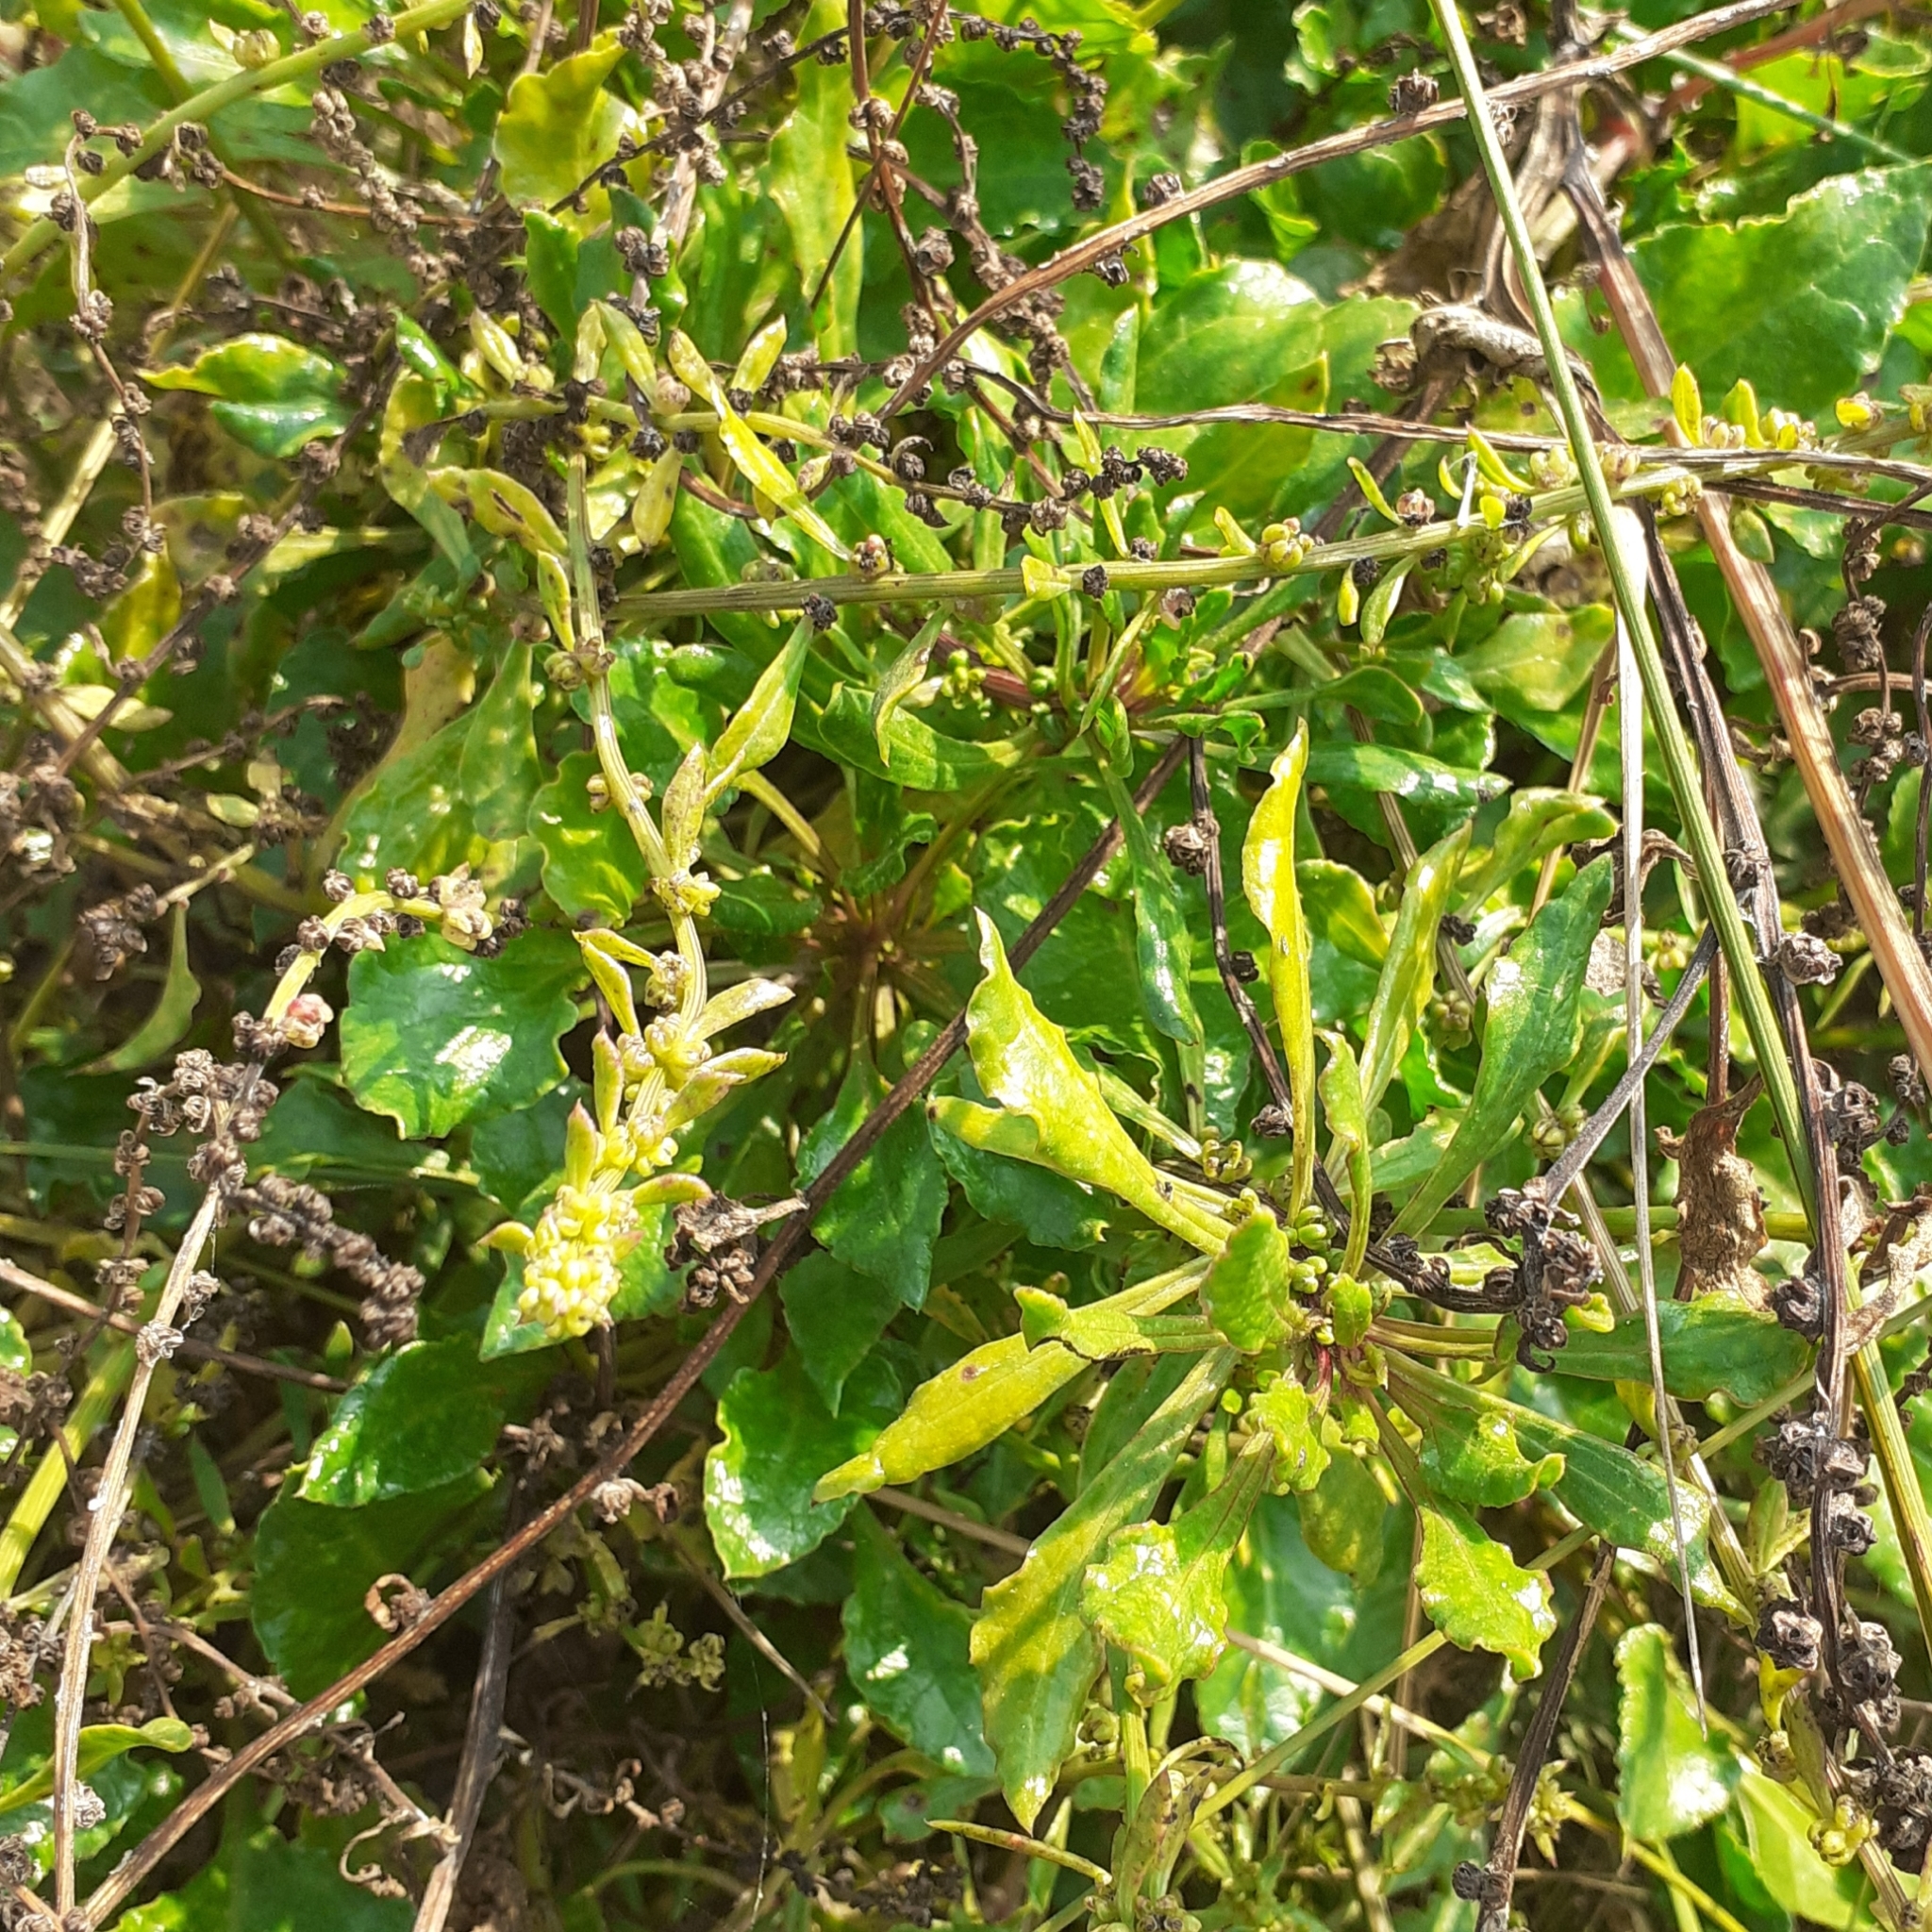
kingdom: Plantae
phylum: Tracheophyta
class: Magnoliopsida
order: Caryophyllales
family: Amaranthaceae
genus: Beta
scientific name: Beta vulgaris
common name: Beet
